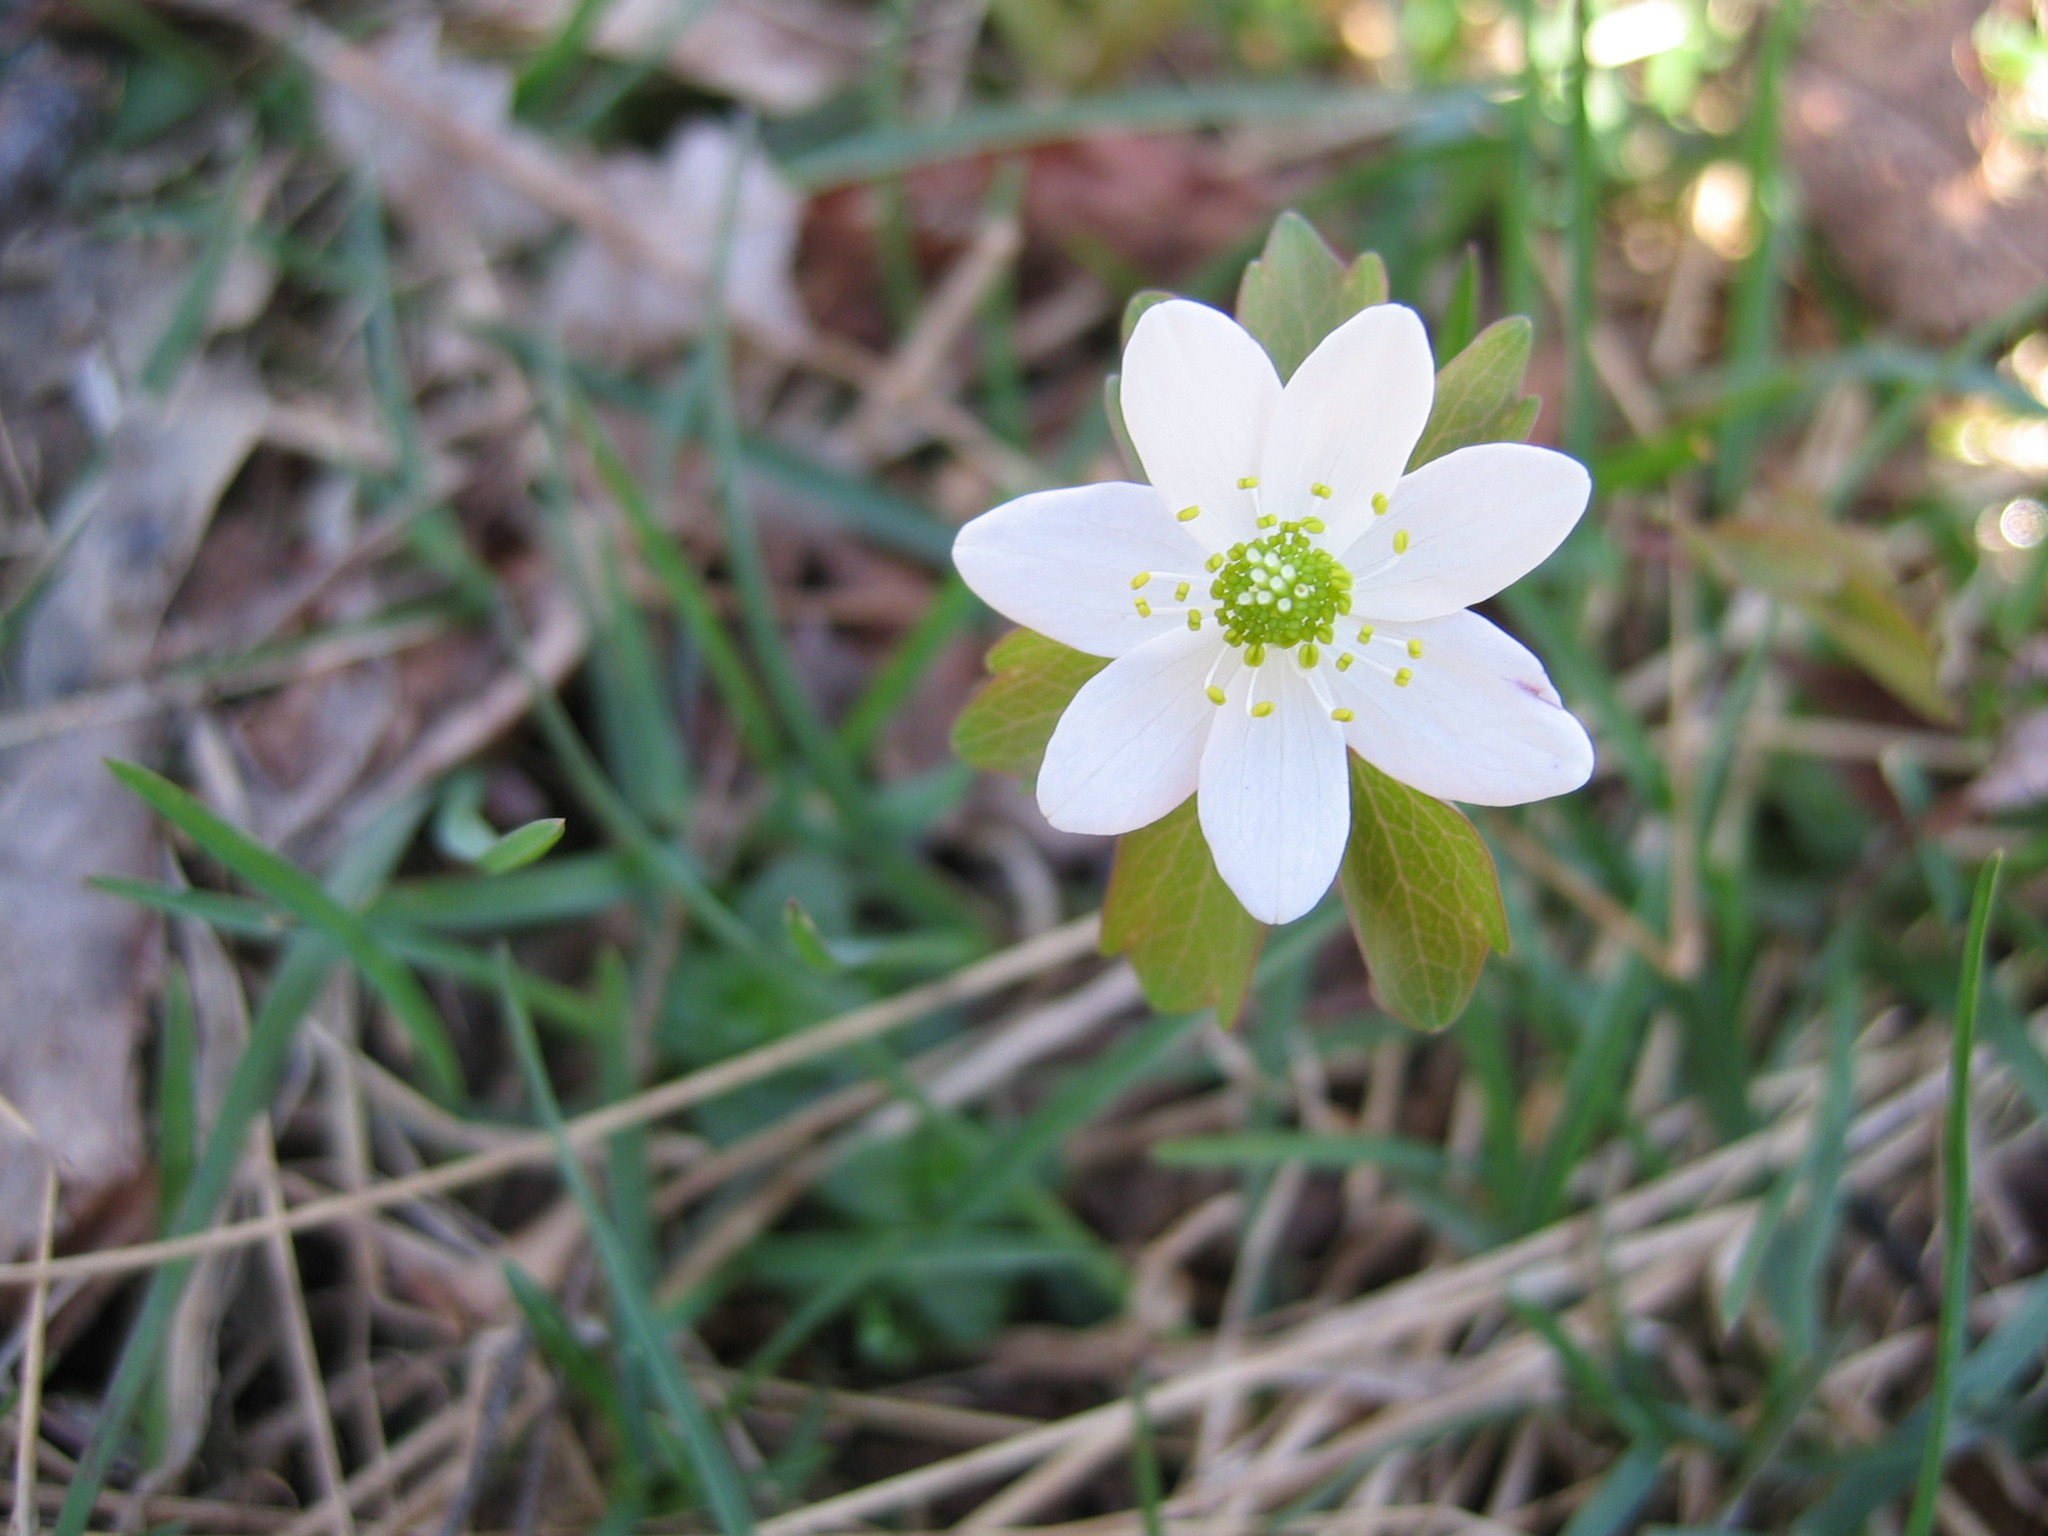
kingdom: Plantae
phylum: Tracheophyta
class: Magnoliopsida
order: Ranunculales
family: Ranunculaceae
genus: Thalictrum
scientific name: Thalictrum thalictroides
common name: Rue-anemone
